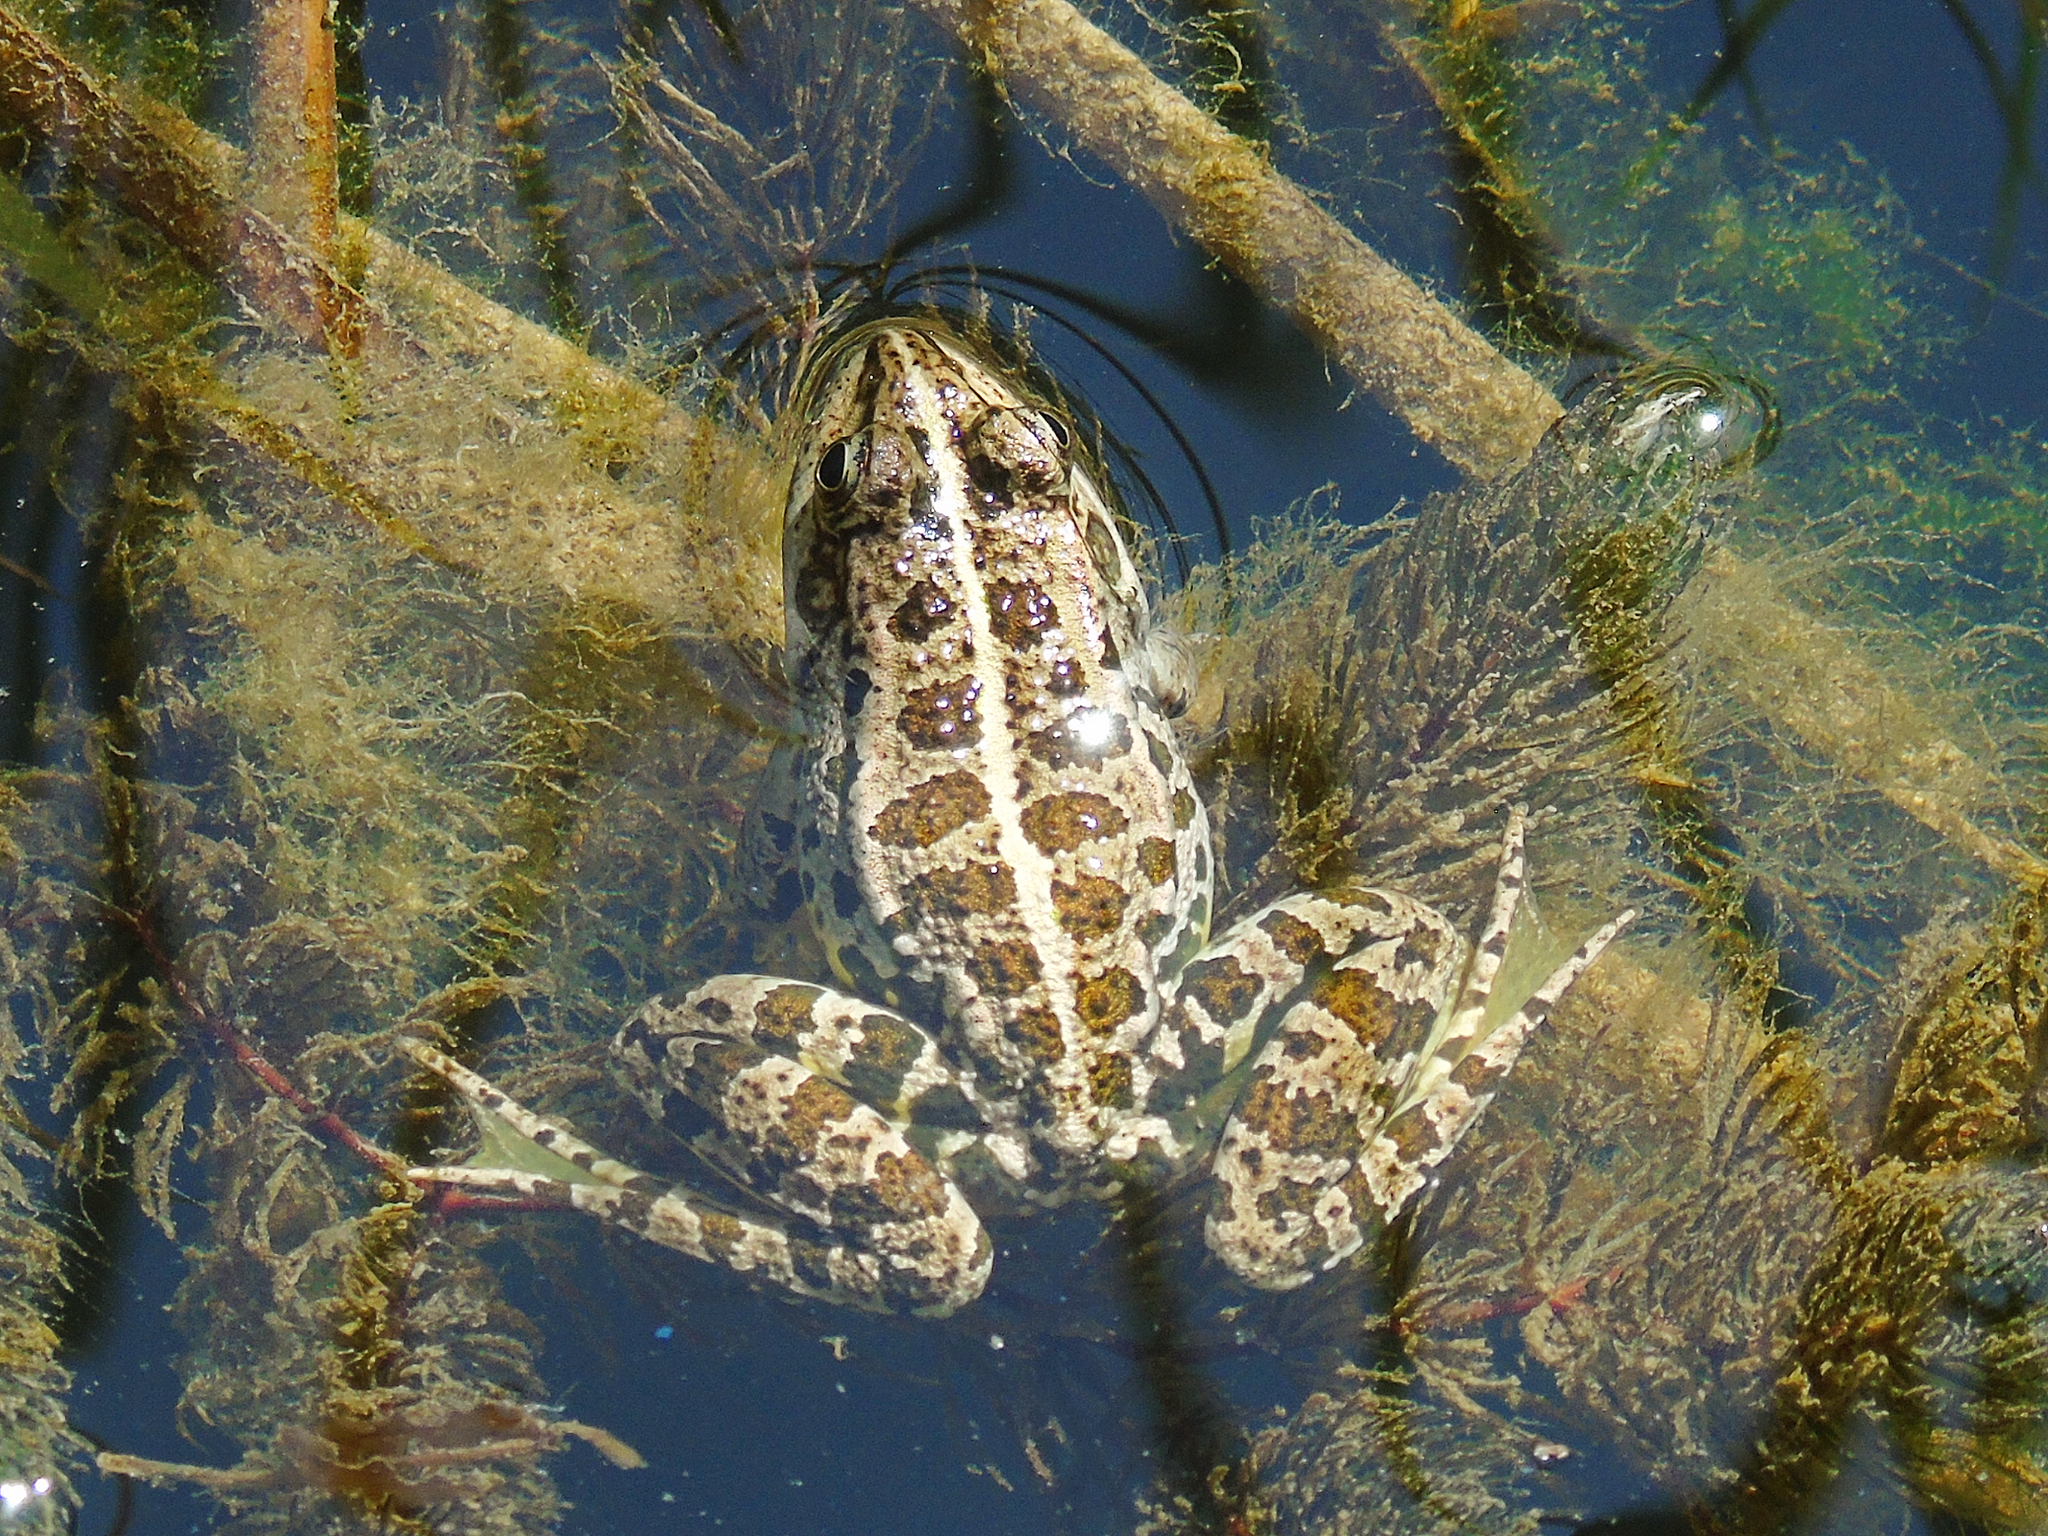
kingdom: Animalia
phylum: Chordata
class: Amphibia
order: Anura
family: Ranidae
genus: Pelophylax
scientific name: Pelophylax ridibundus
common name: Marsh frog
